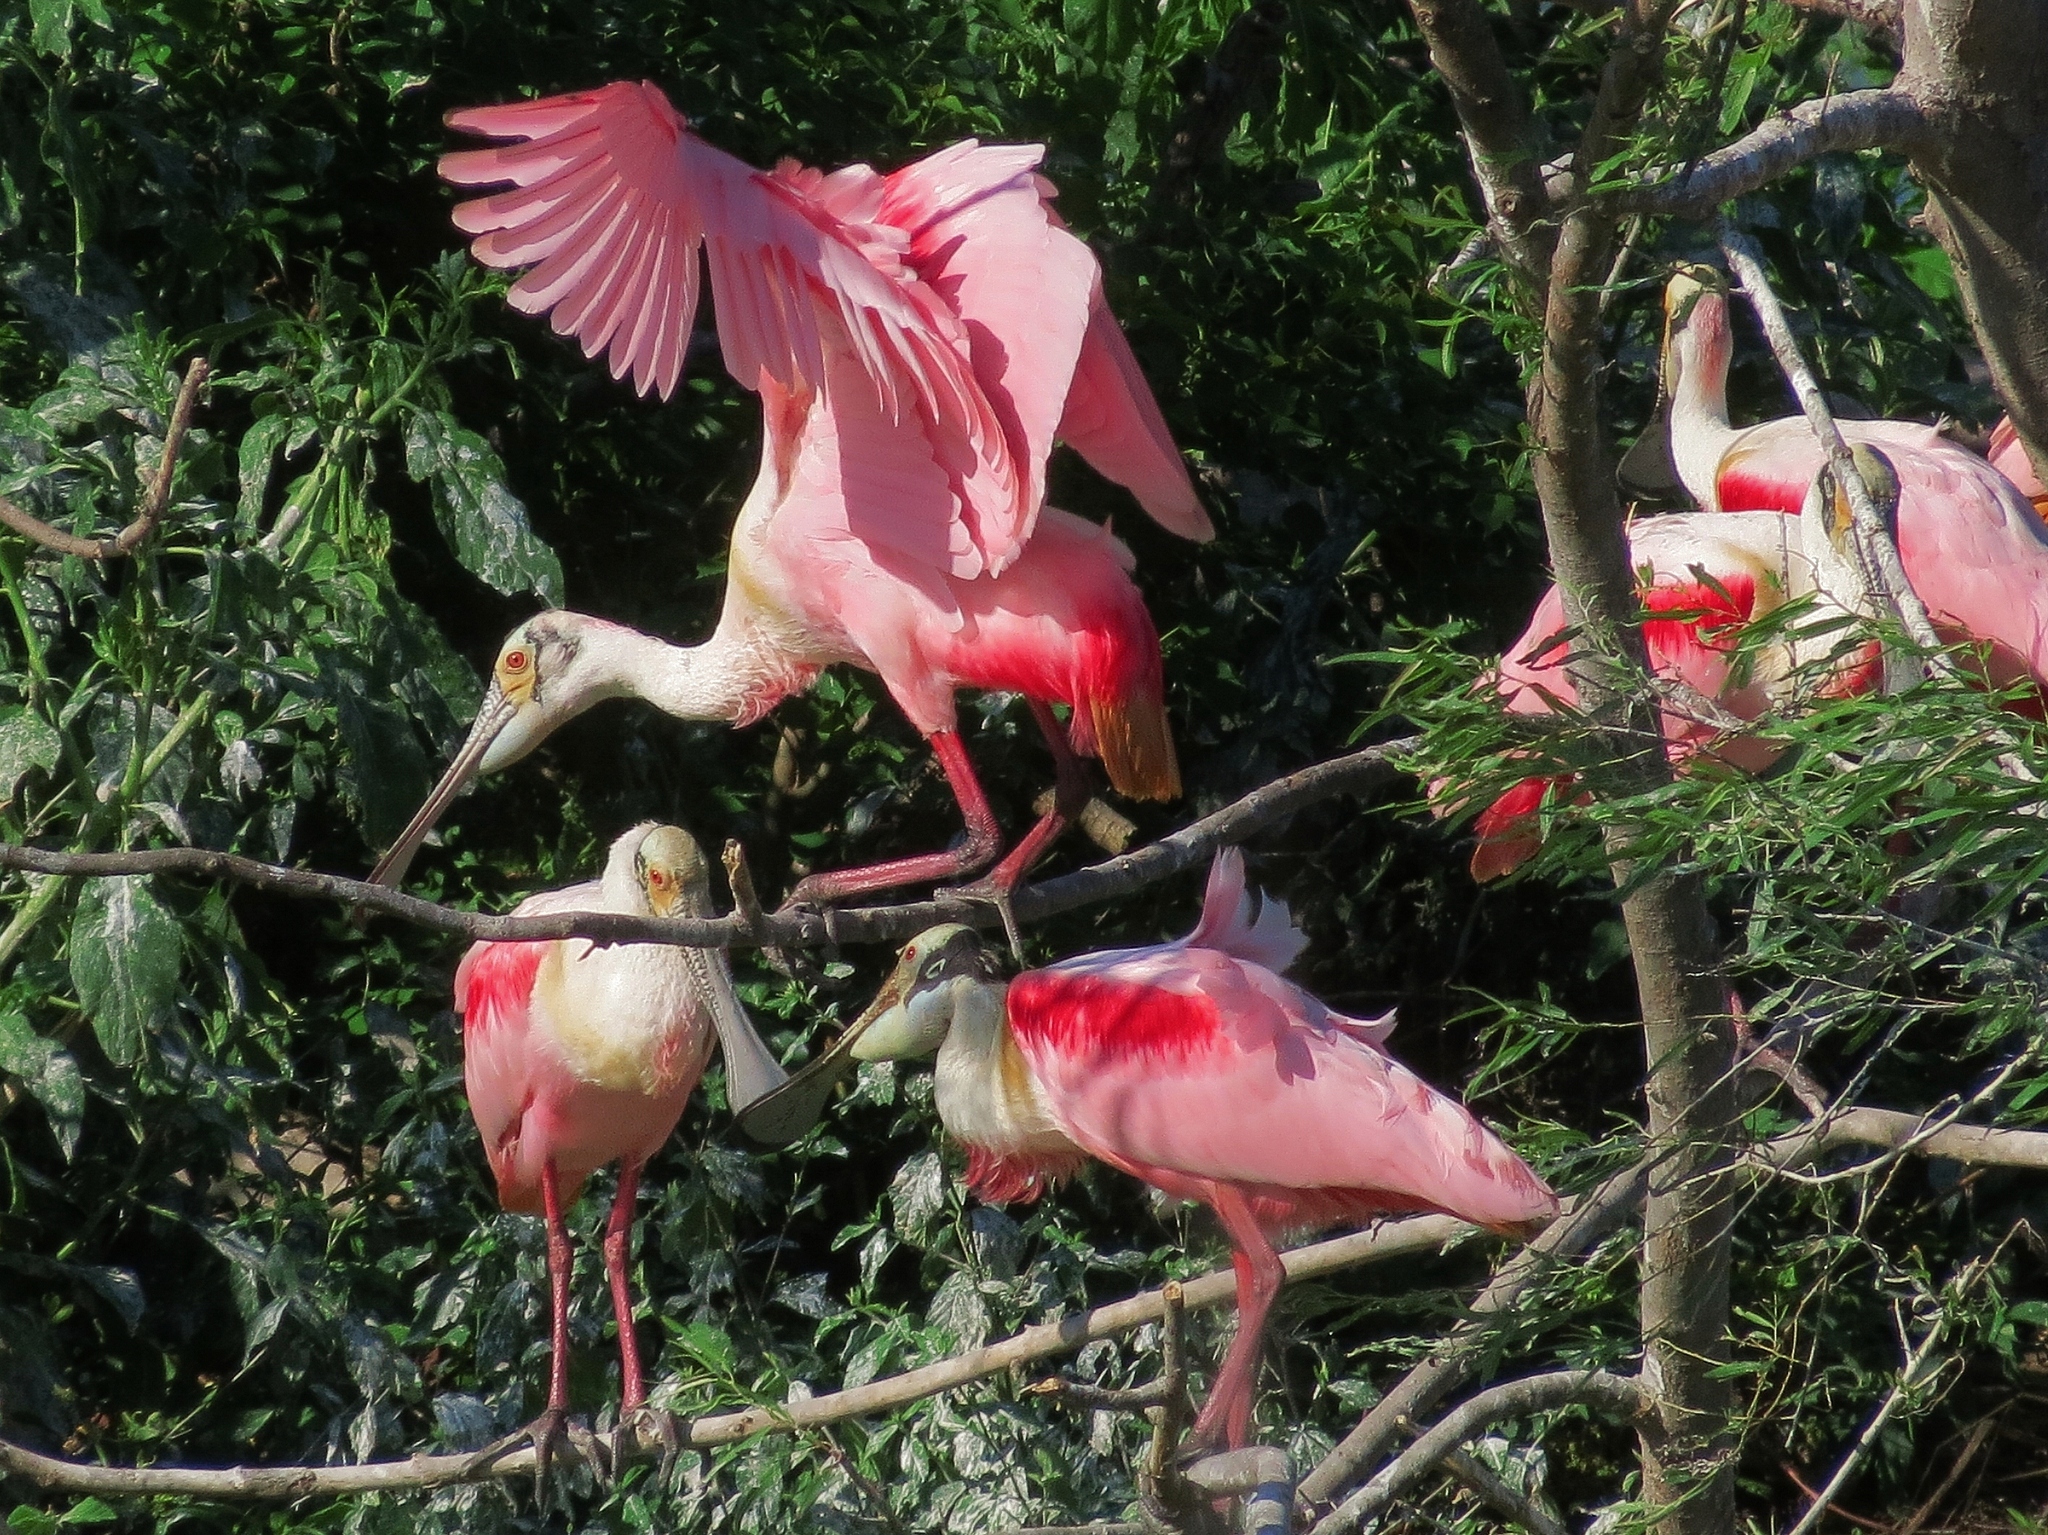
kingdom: Animalia
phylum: Chordata
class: Aves
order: Pelecaniformes
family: Threskiornithidae
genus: Platalea
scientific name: Platalea ajaja
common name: Roseate spoonbill
